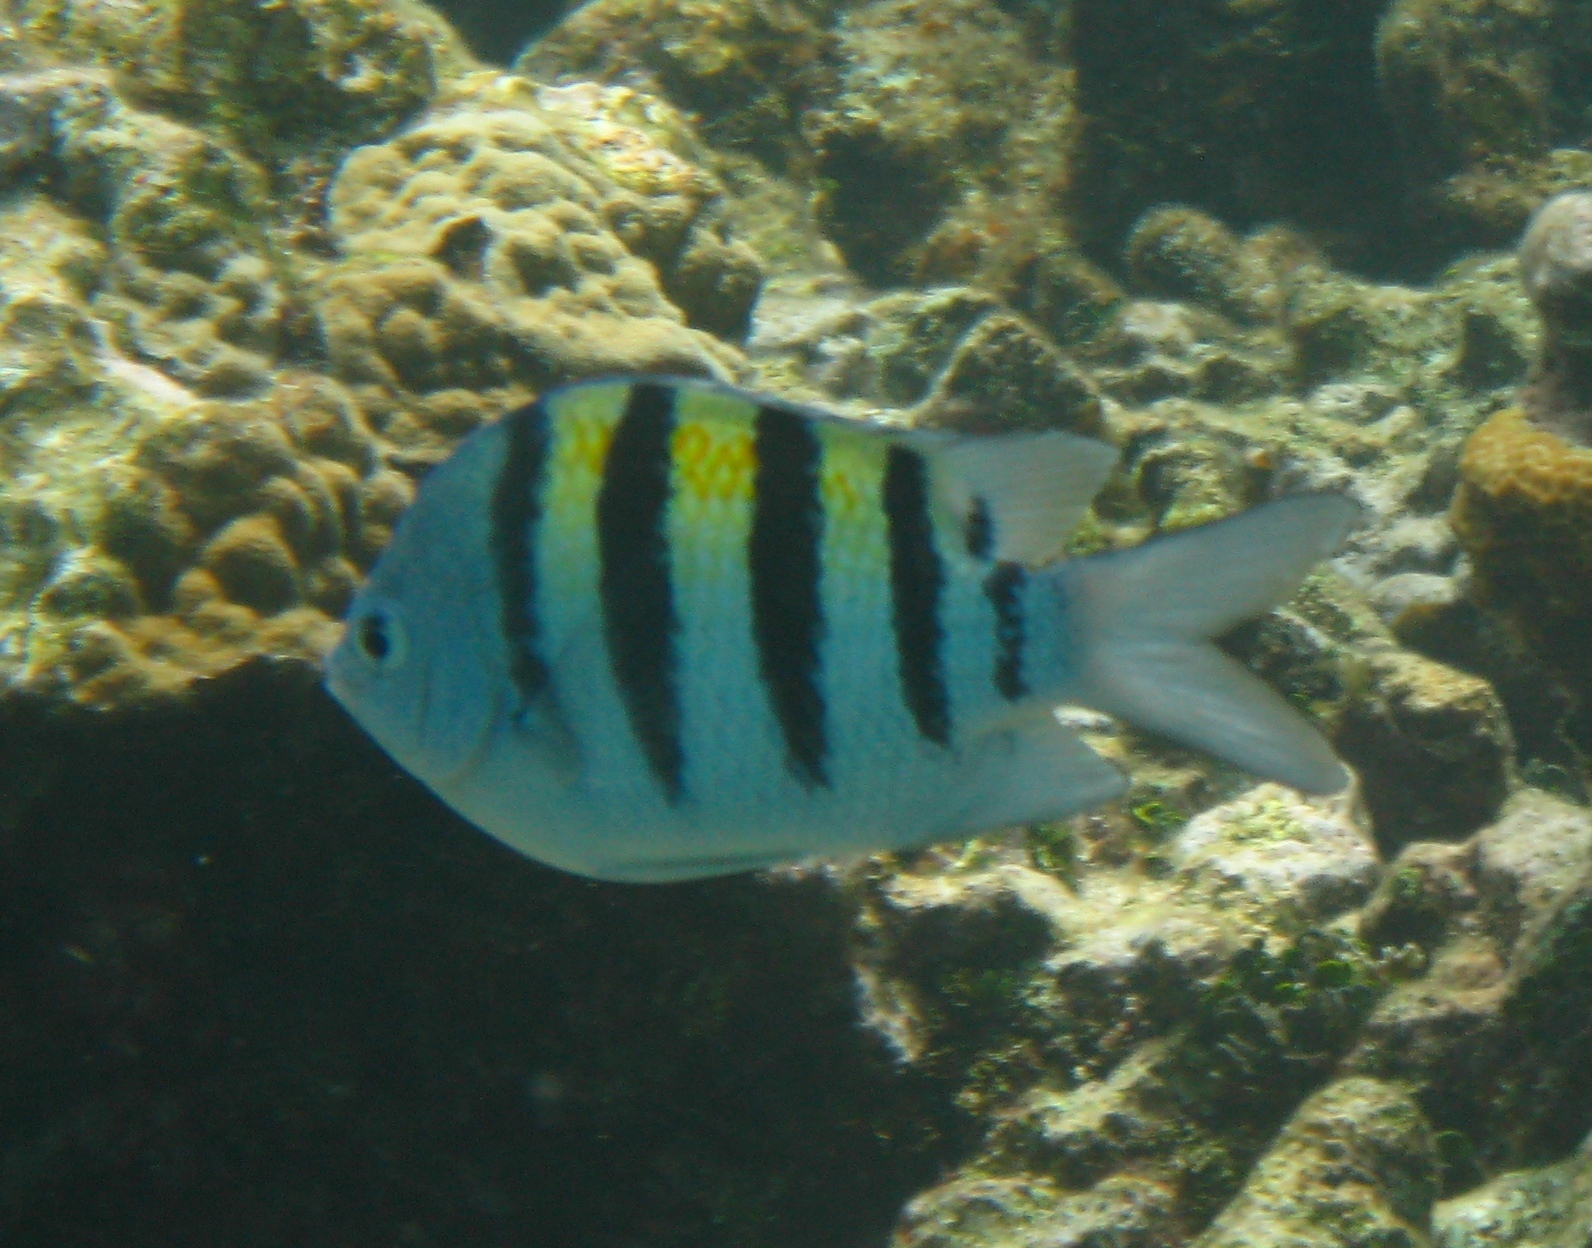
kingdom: Animalia
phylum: Chordata
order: Perciformes
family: Pomacentridae
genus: Abudefduf
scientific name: Abudefduf saxatilis
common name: Sergeant major
